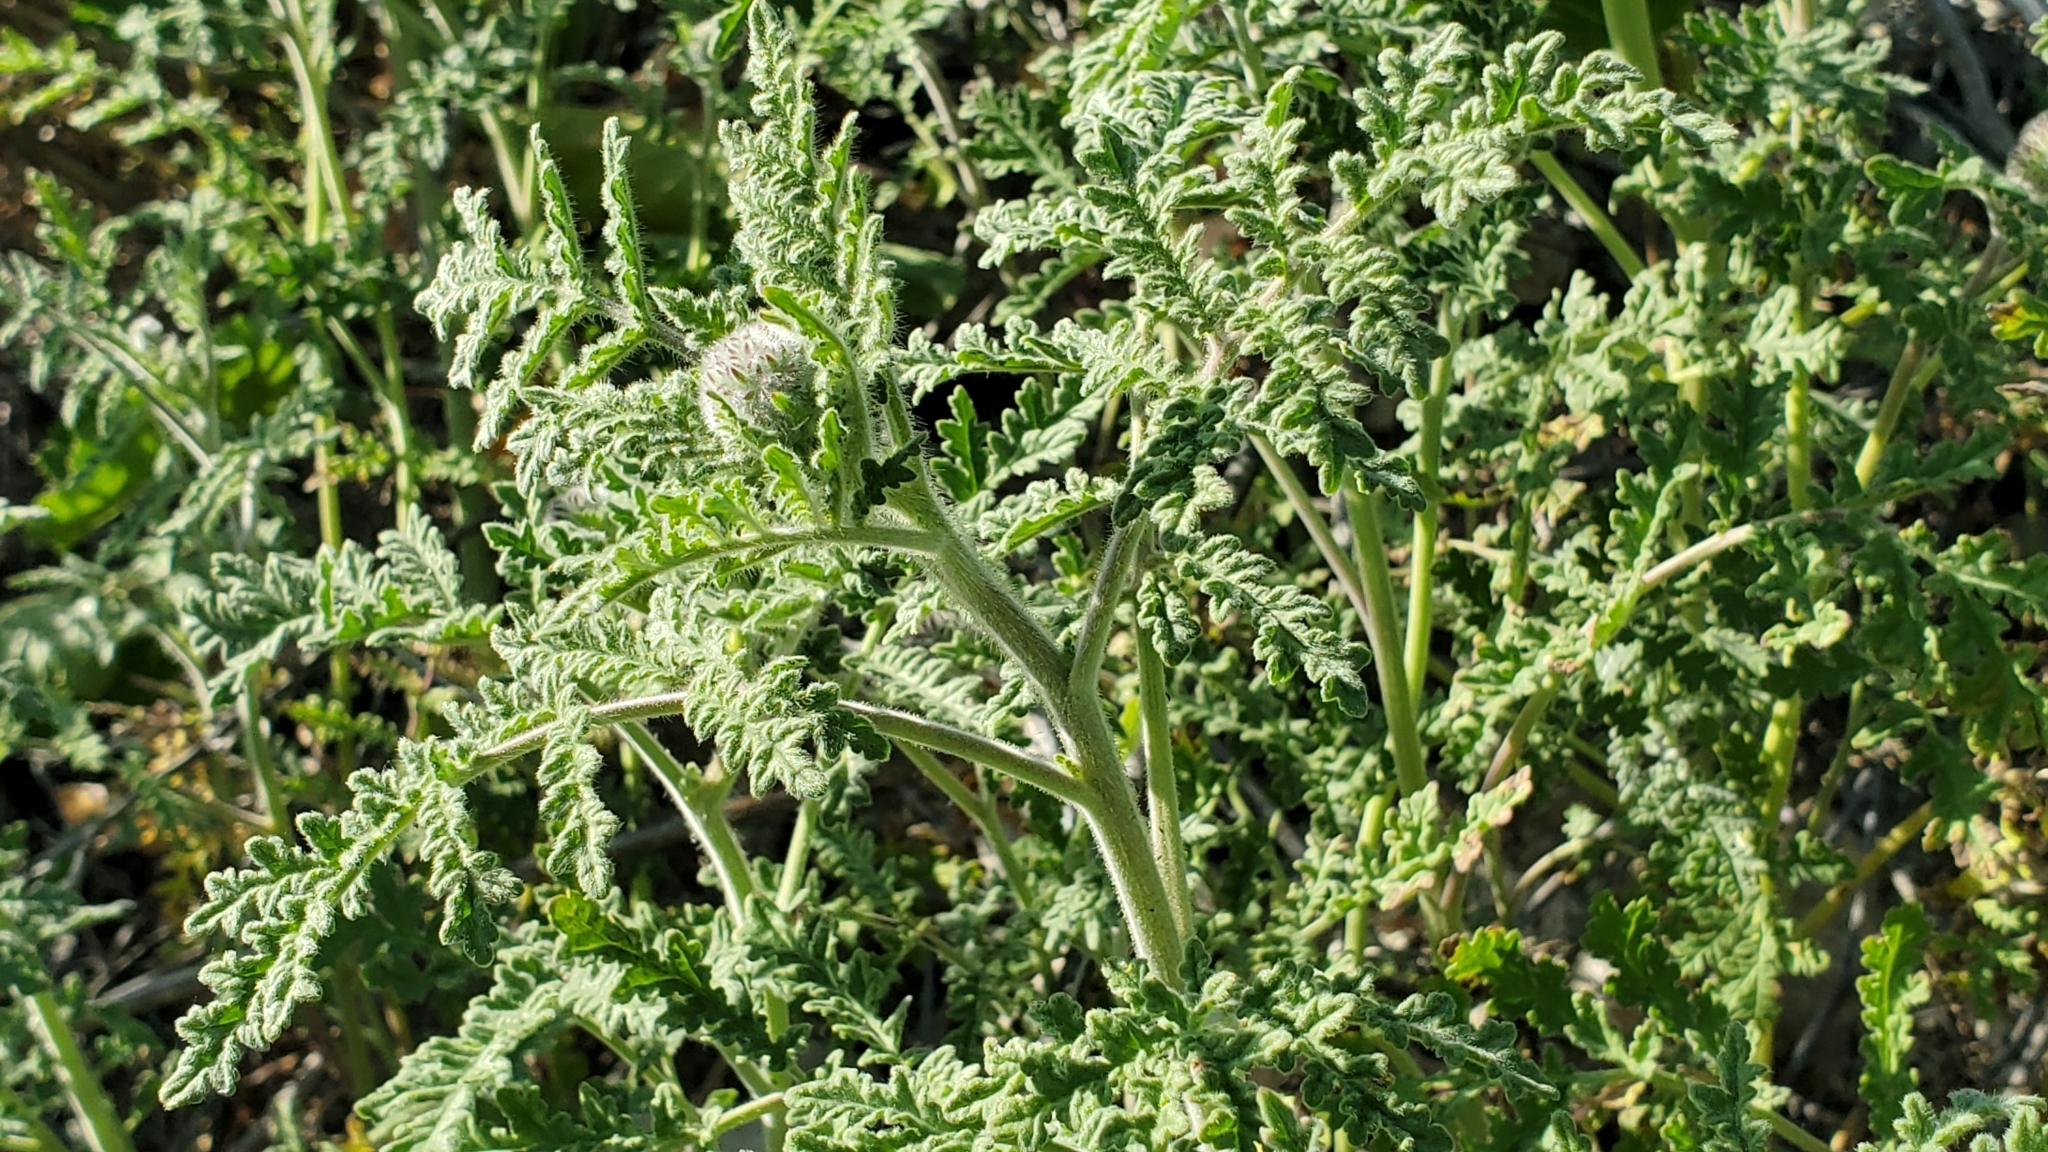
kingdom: Plantae
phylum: Tracheophyta
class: Magnoliopsida
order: Boraginales
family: Hydrophyllaceae
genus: Phacelia
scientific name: Phacelia hubbyi
